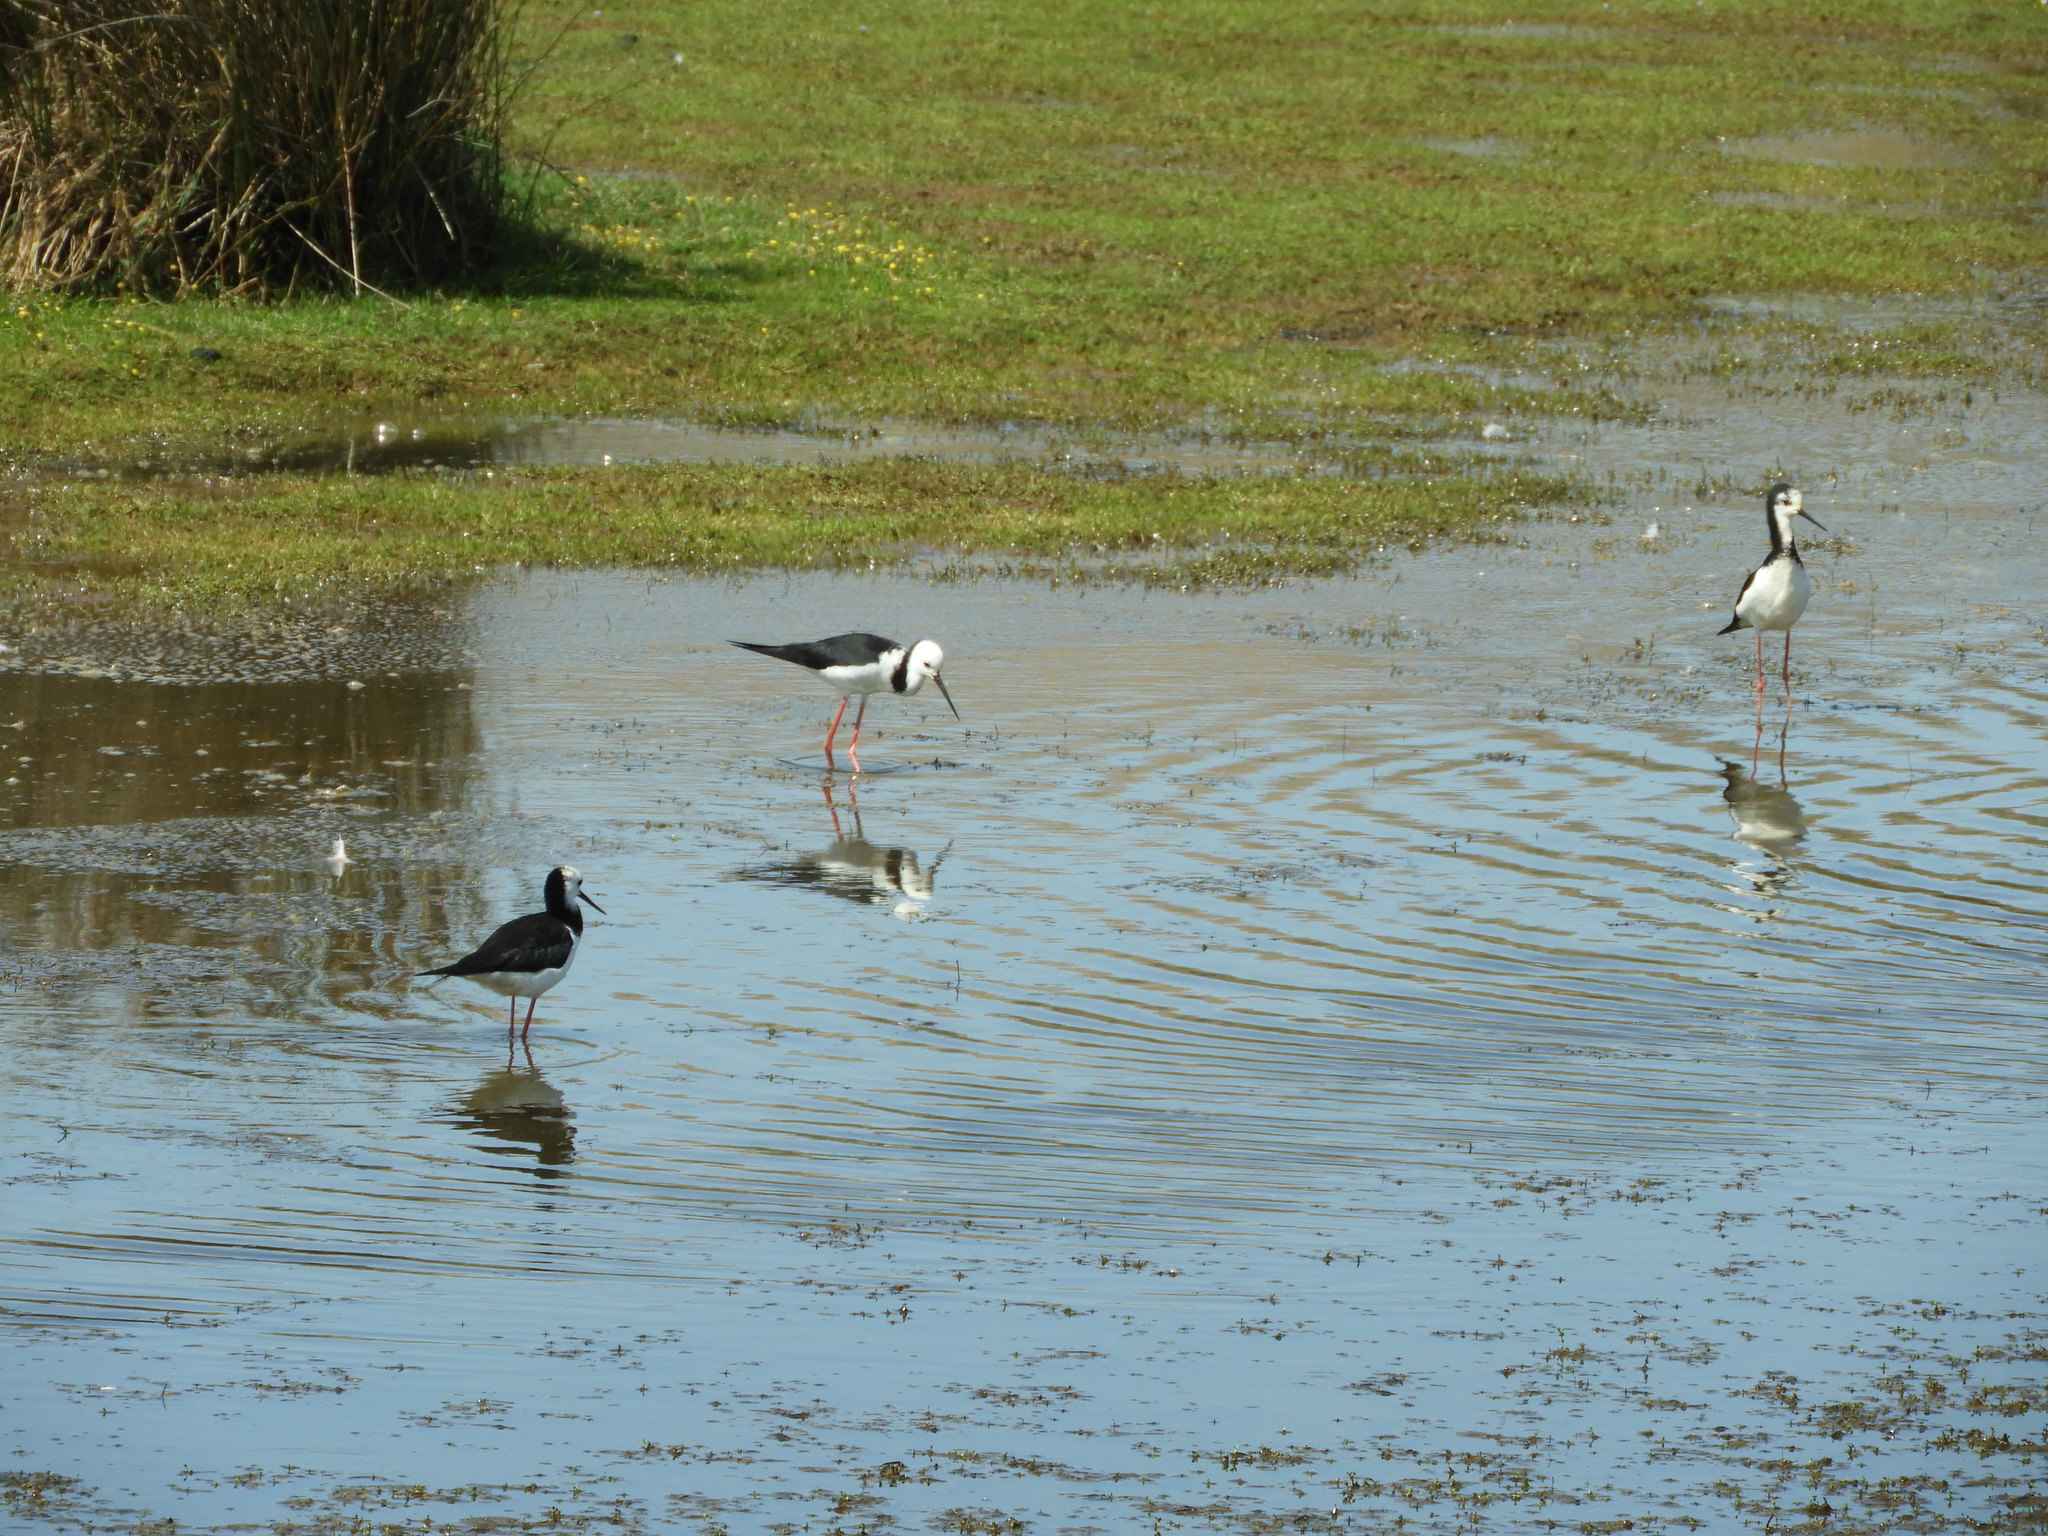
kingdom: Animalia
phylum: Chordata
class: Aves
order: Charadriiformes
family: Recurvirostridae
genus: Himantopus
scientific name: Himantopus leucocephalus
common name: White-headed stilt
